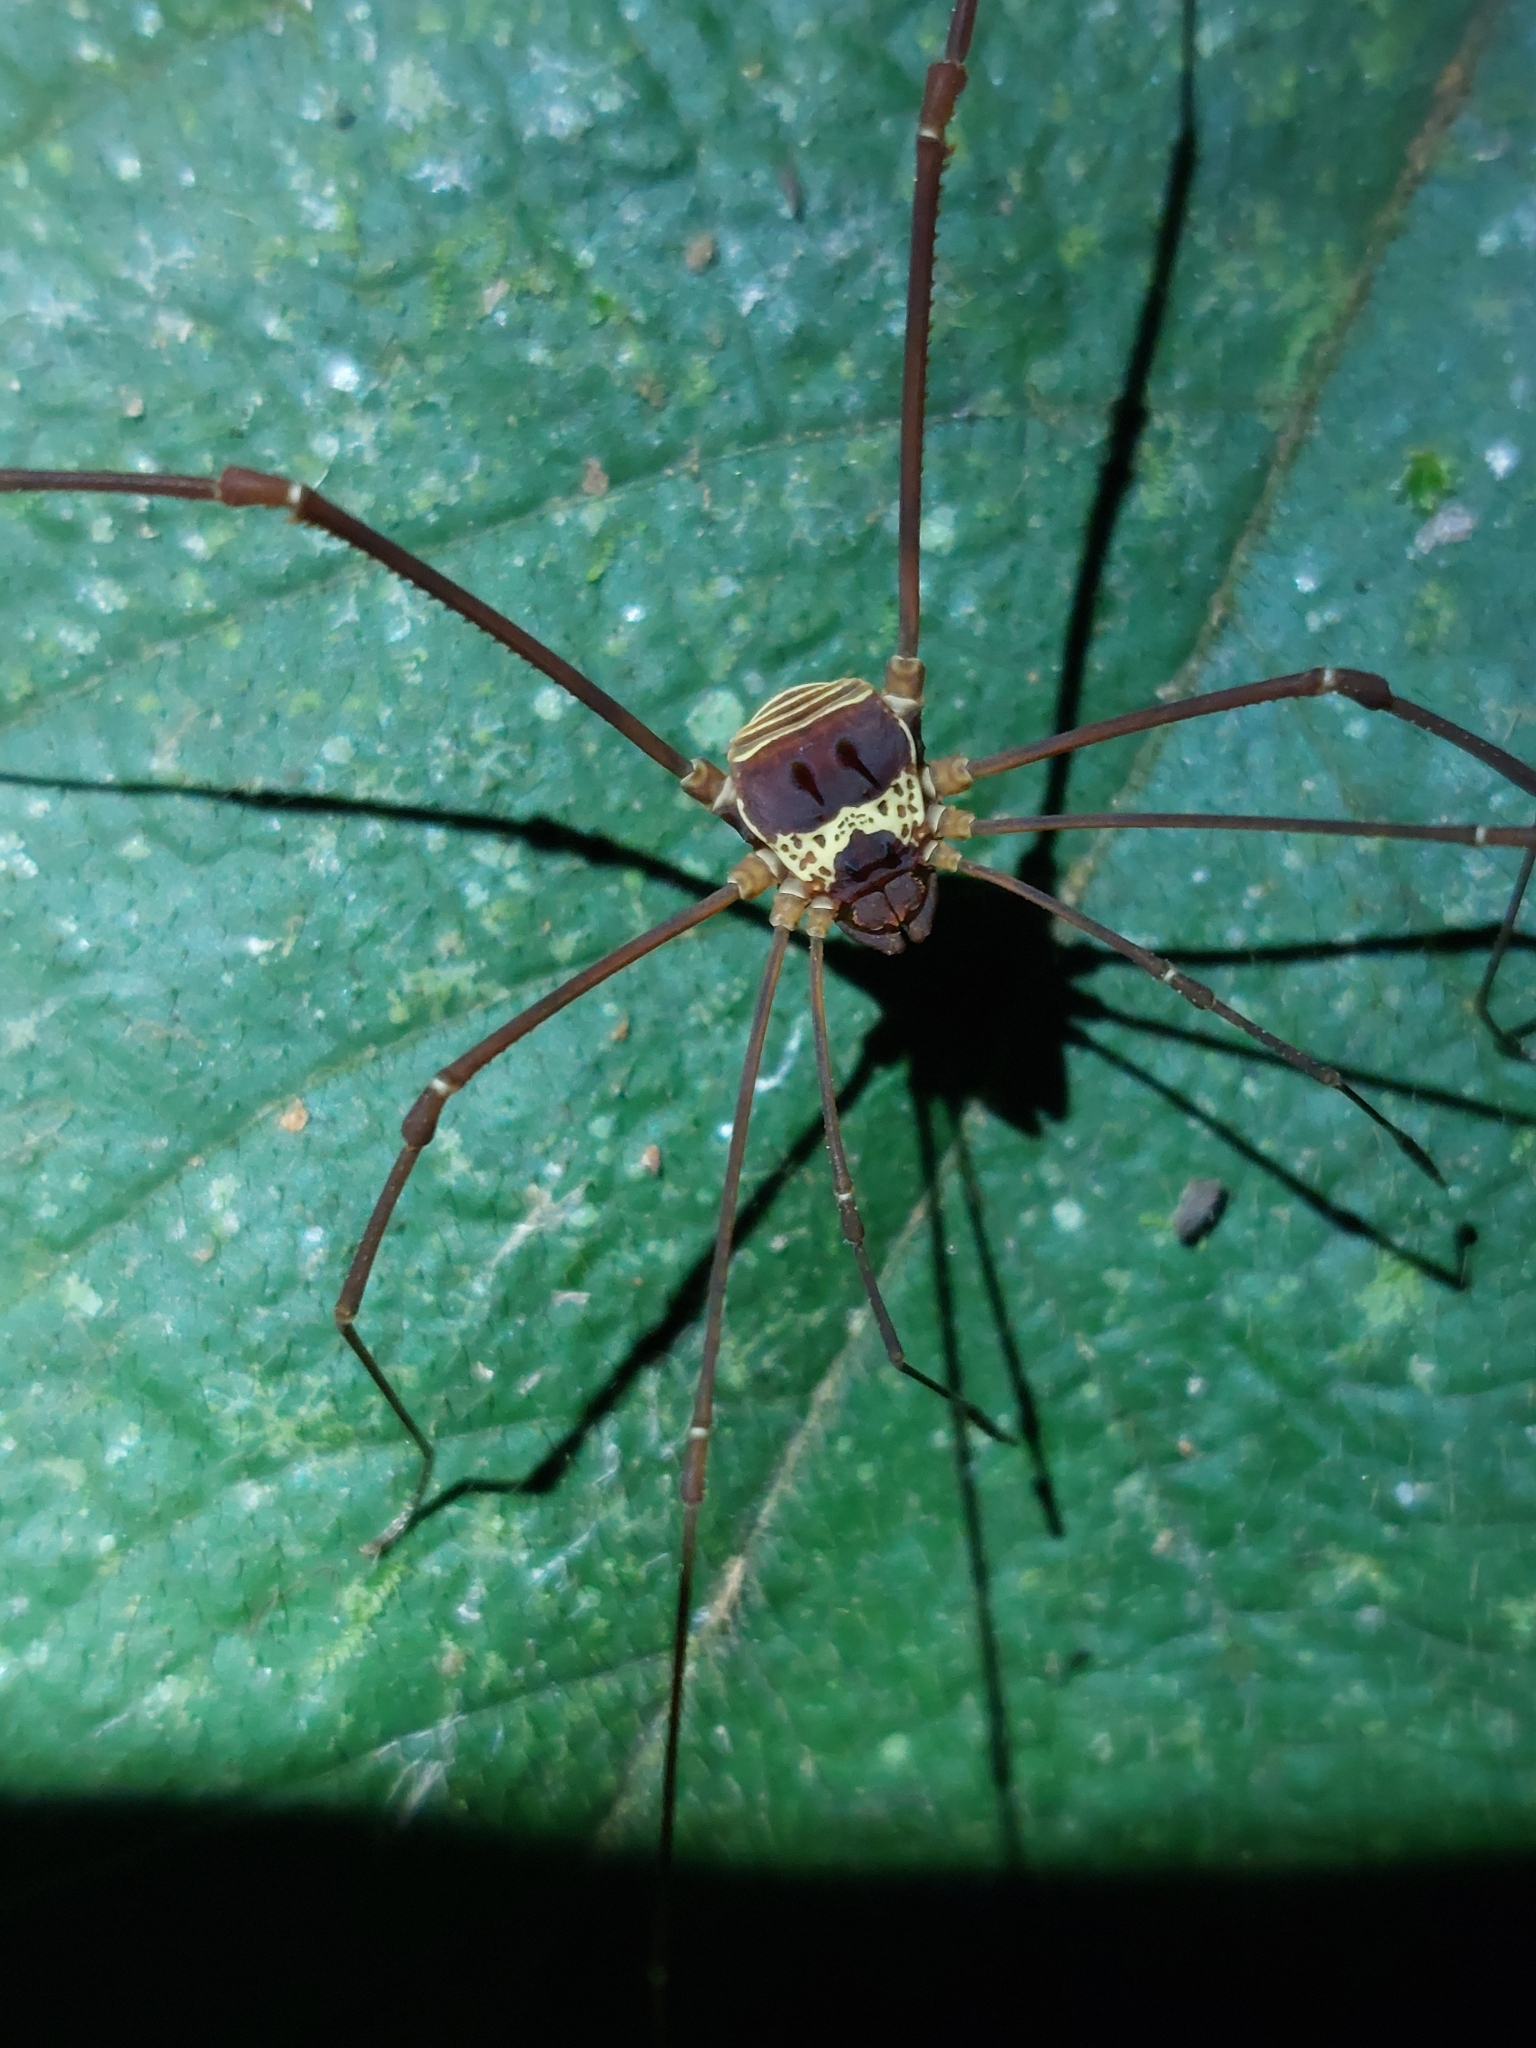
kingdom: Animalia
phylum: Arthropoda
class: Arachnida
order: Opiliones
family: Cosmetidae
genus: Meterginus
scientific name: Meterginus serratus
